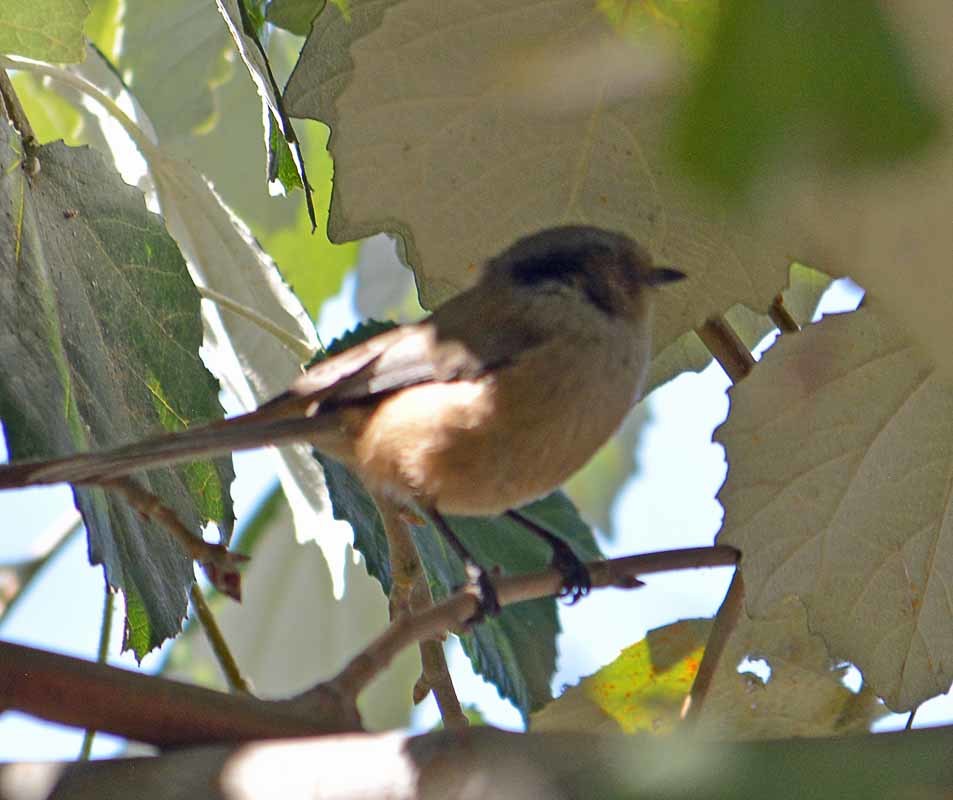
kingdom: Animalia
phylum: Chordata
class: Aves
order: Passeriformes
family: Aegithalidae
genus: Psaltriparus
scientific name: Psaltriparus minimus
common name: American bushtit
